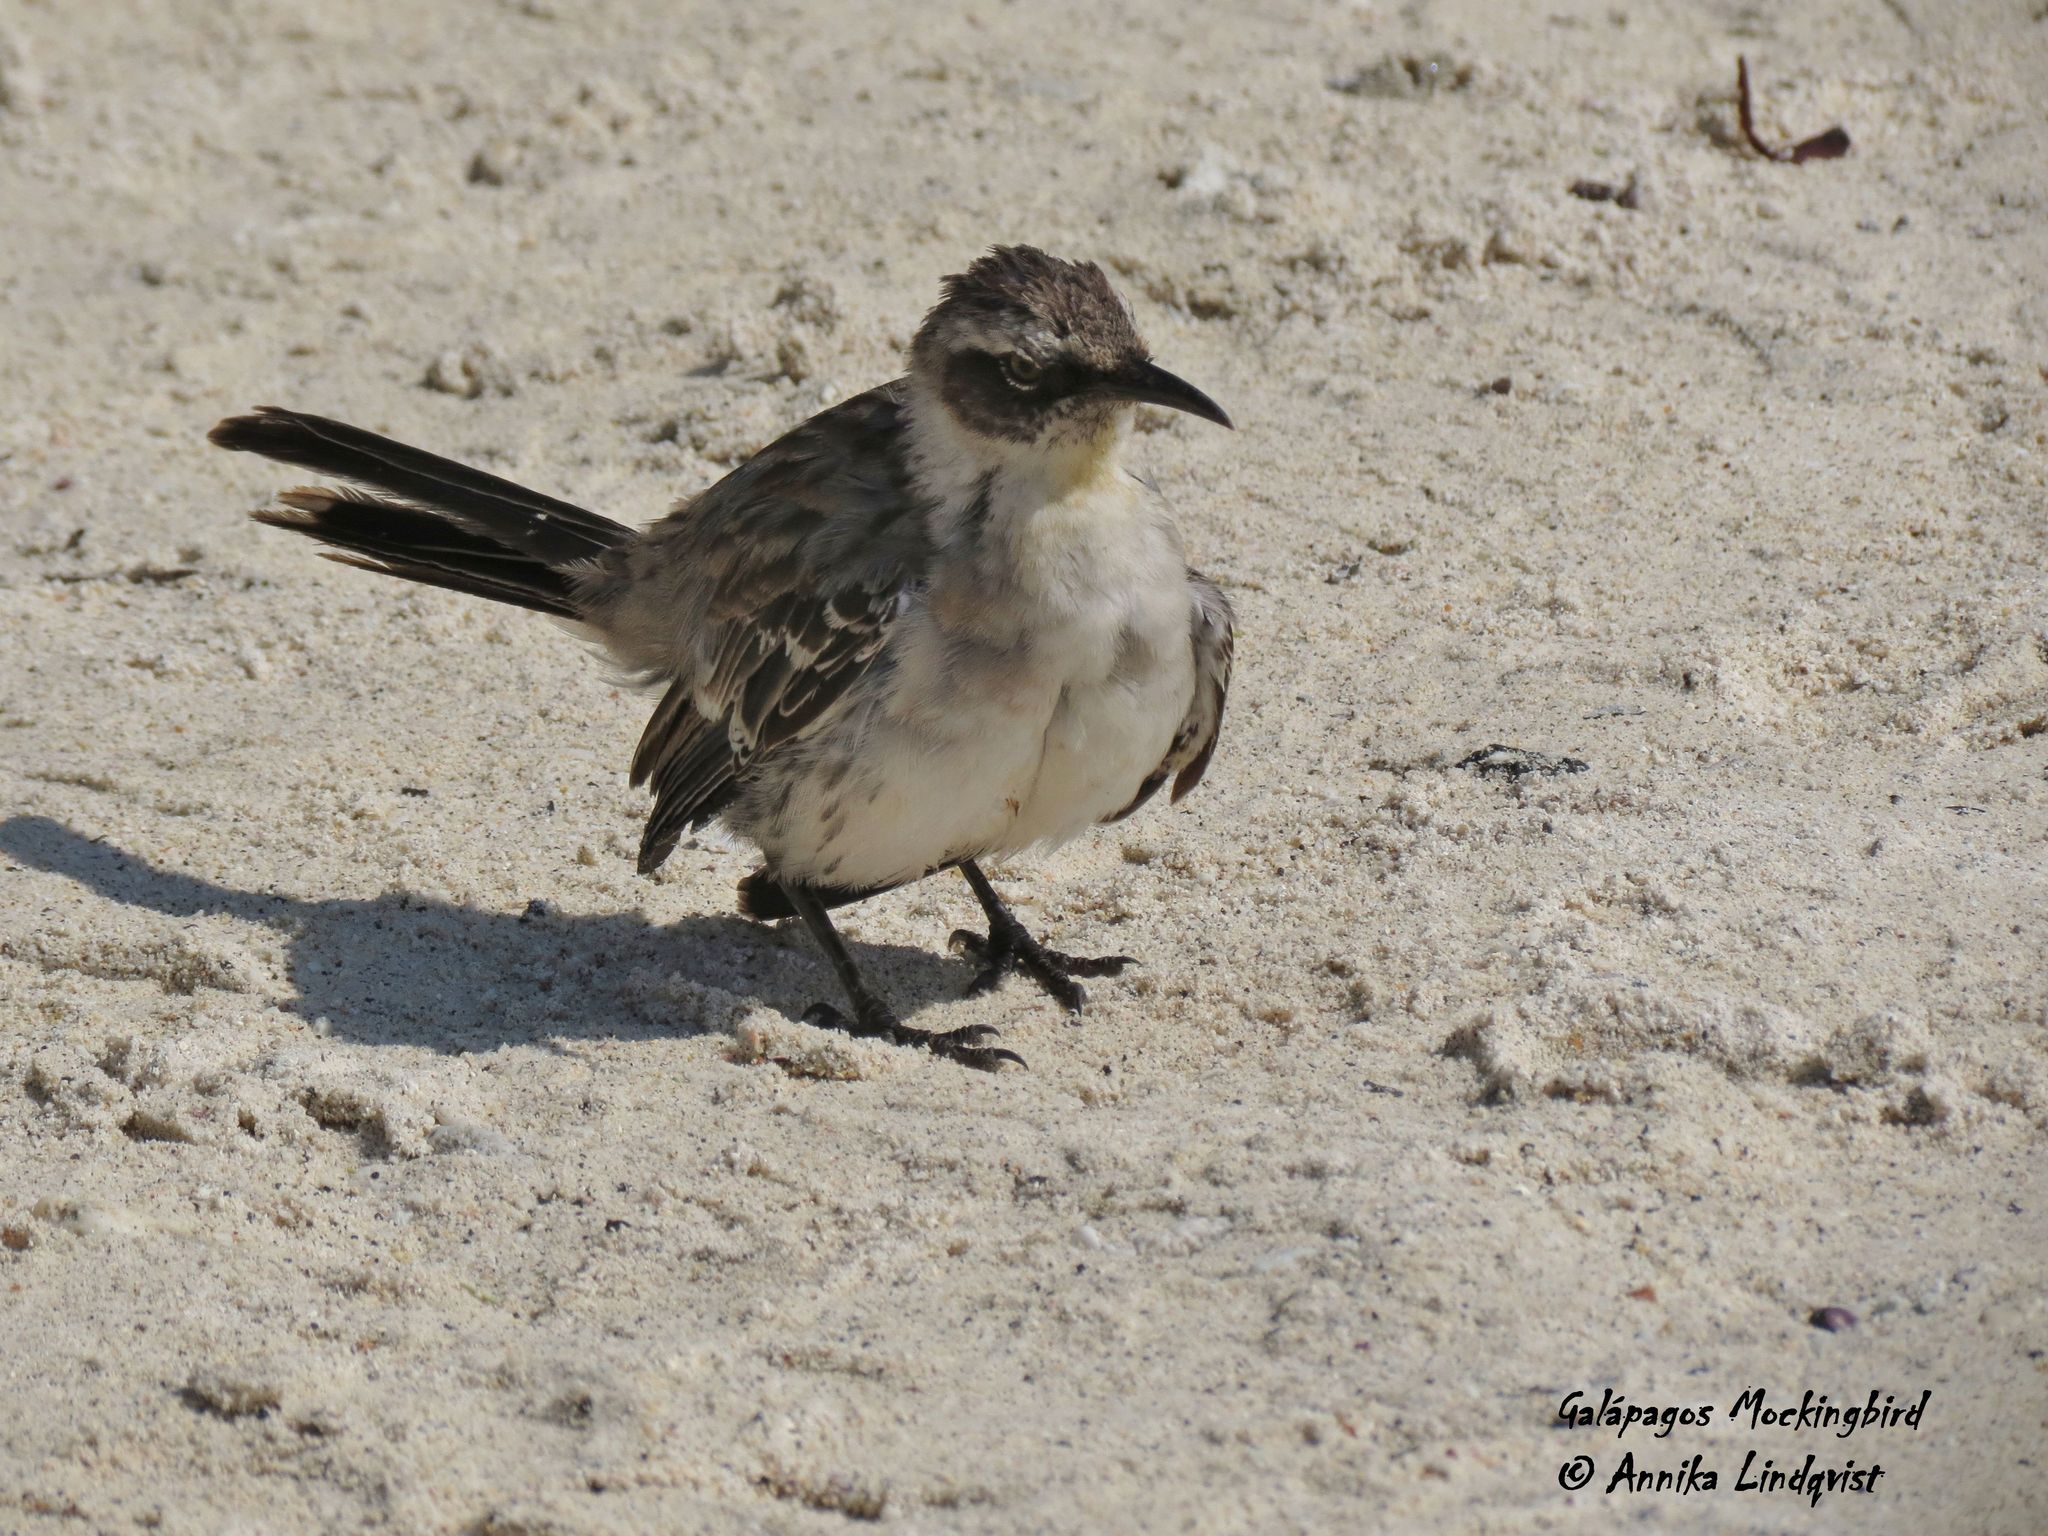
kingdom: Animalia
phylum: Chordata
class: Aves
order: Passeriformes
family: Mimidae
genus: Mimus
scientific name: Mimus parvulus
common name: Galapagos mockingbird
